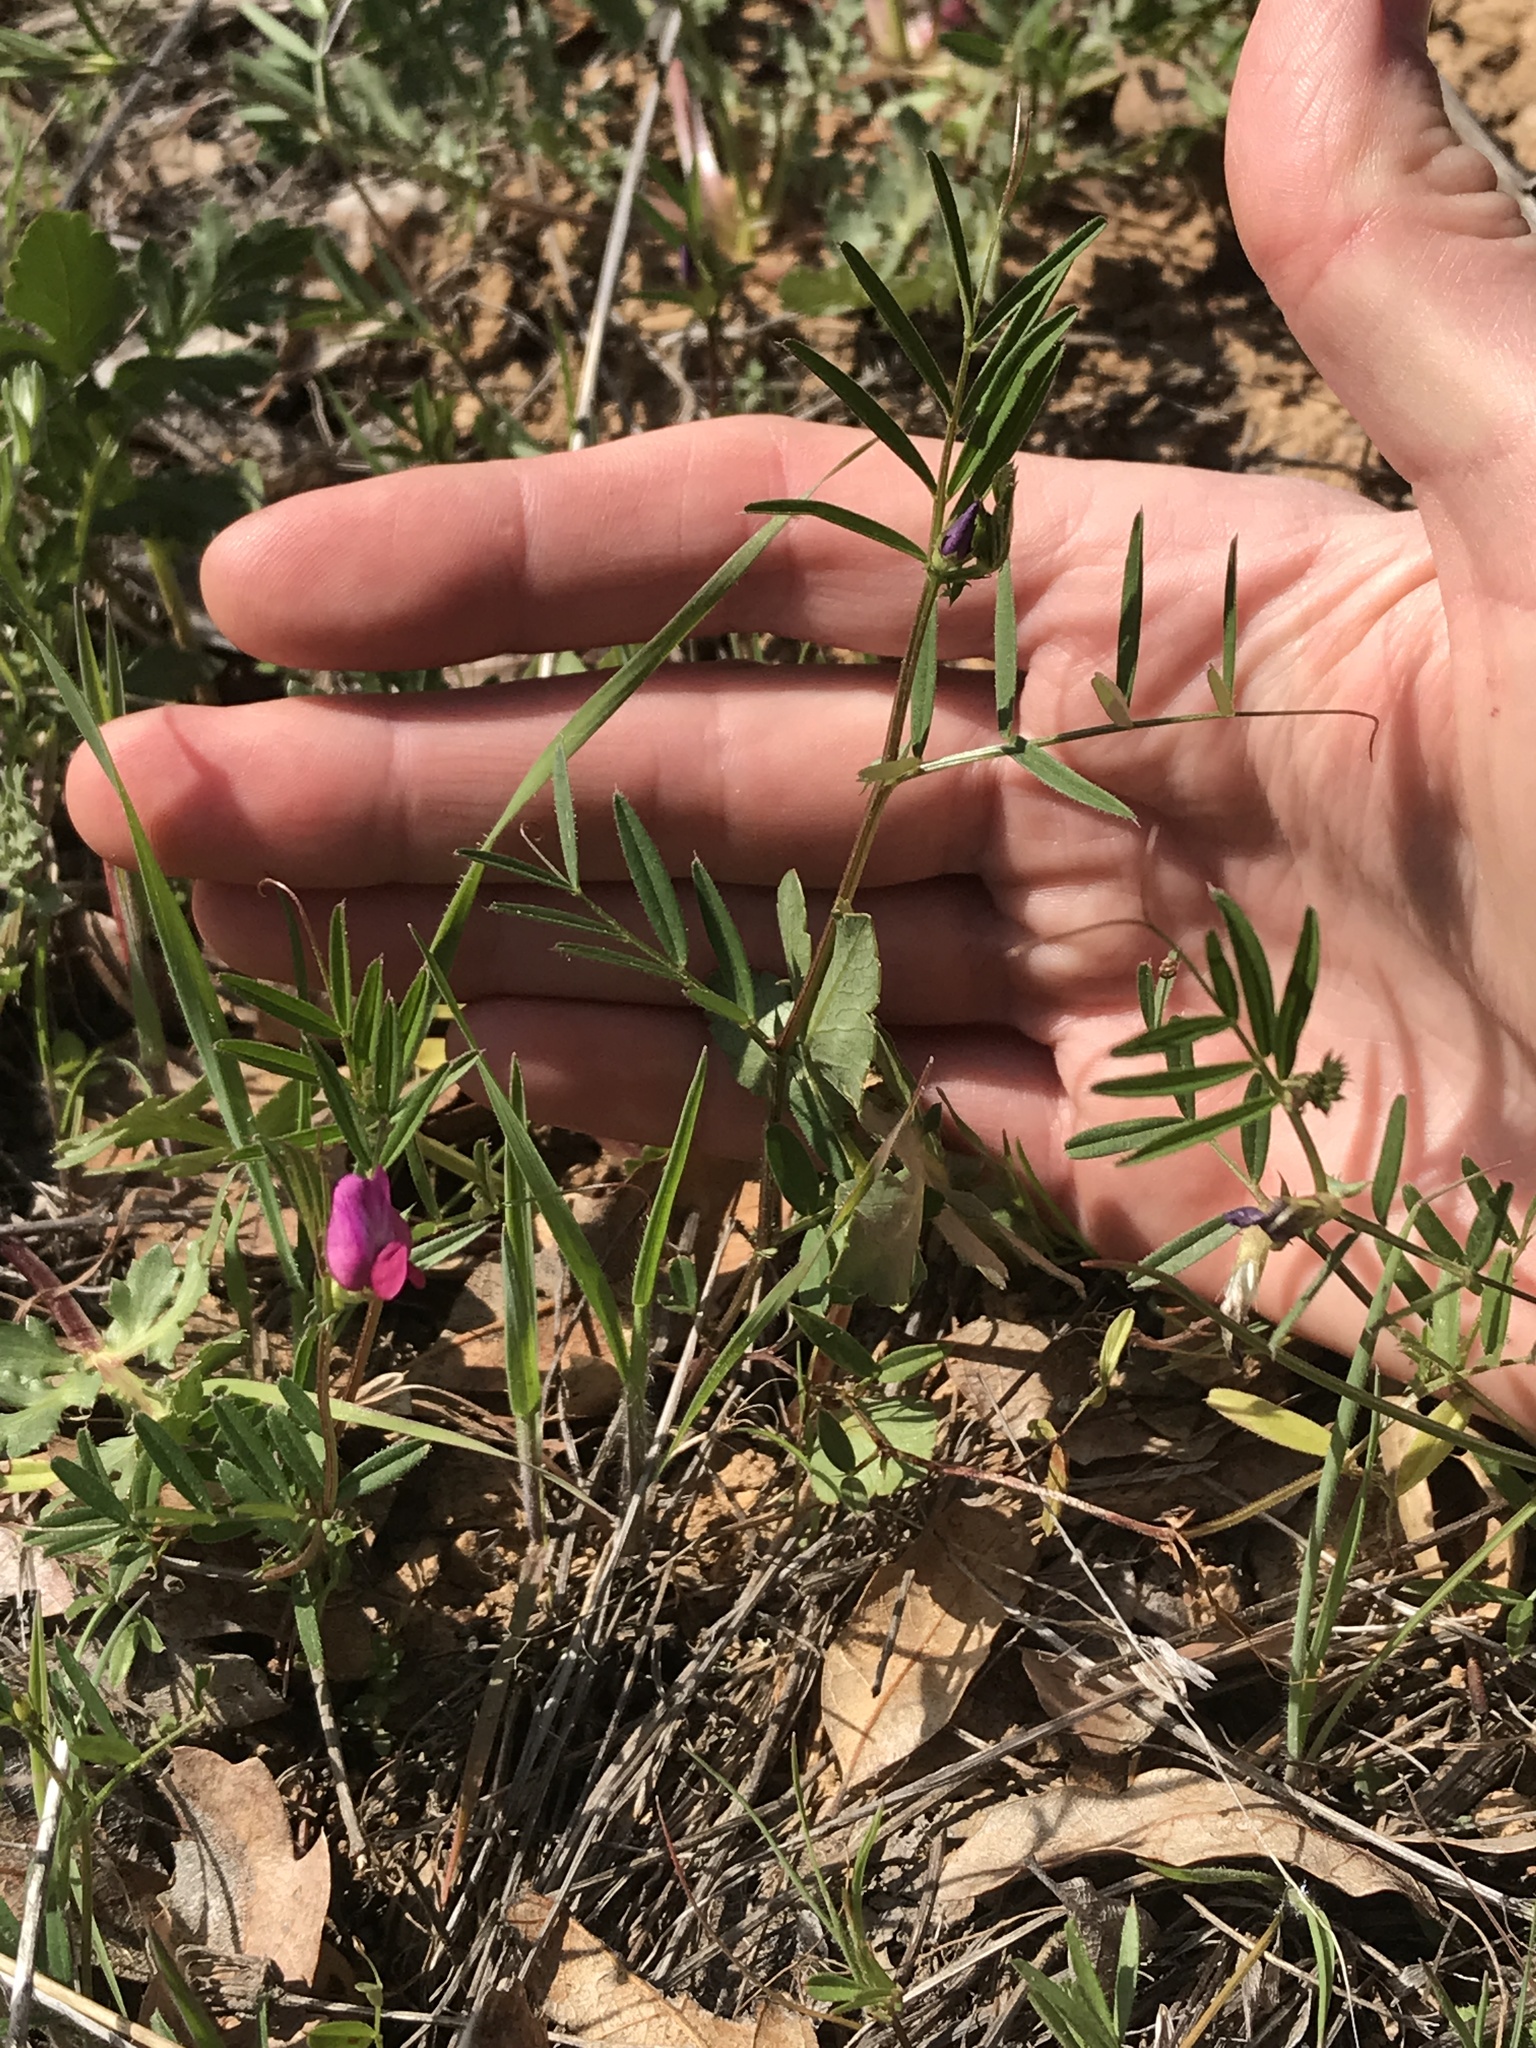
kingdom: Plantae
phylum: Tracheophyta
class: Magnoliopsida
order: Fabales
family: Fabaceae
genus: Vicia
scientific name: Vicia sativa
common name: Garden vetch
